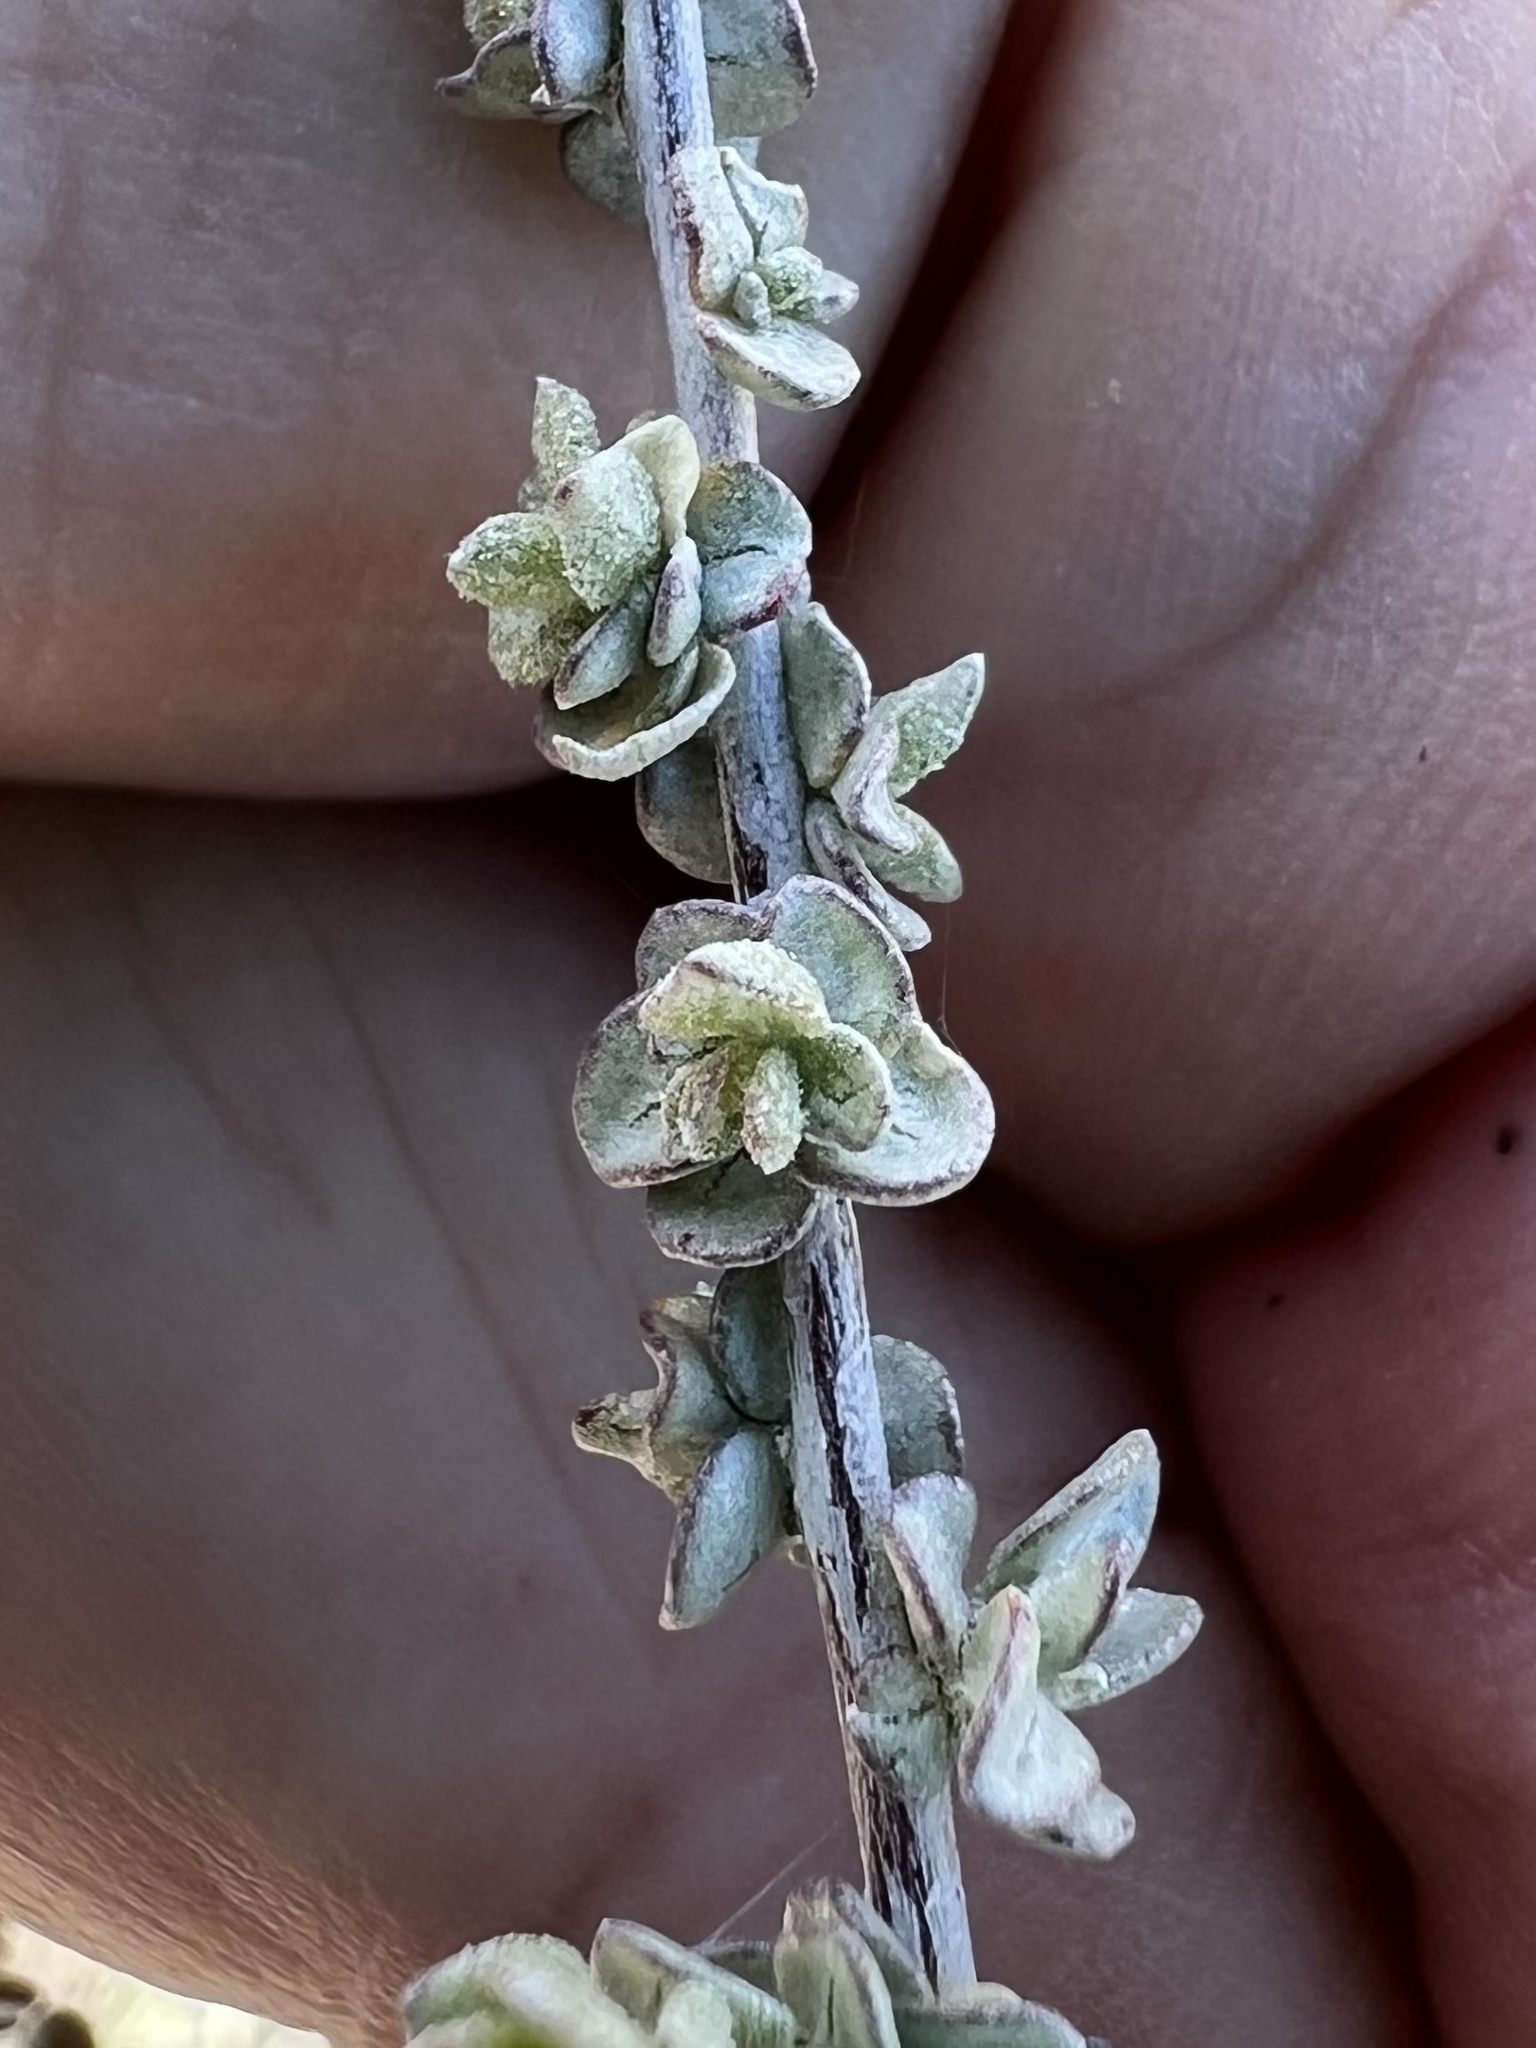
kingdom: Plantae
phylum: Tracheophyta
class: Magnoliopsida
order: Caryophyllales
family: Amaranthaceae
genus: Atriplex
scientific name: Atriplex polycarpa
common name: Desert saltbush
